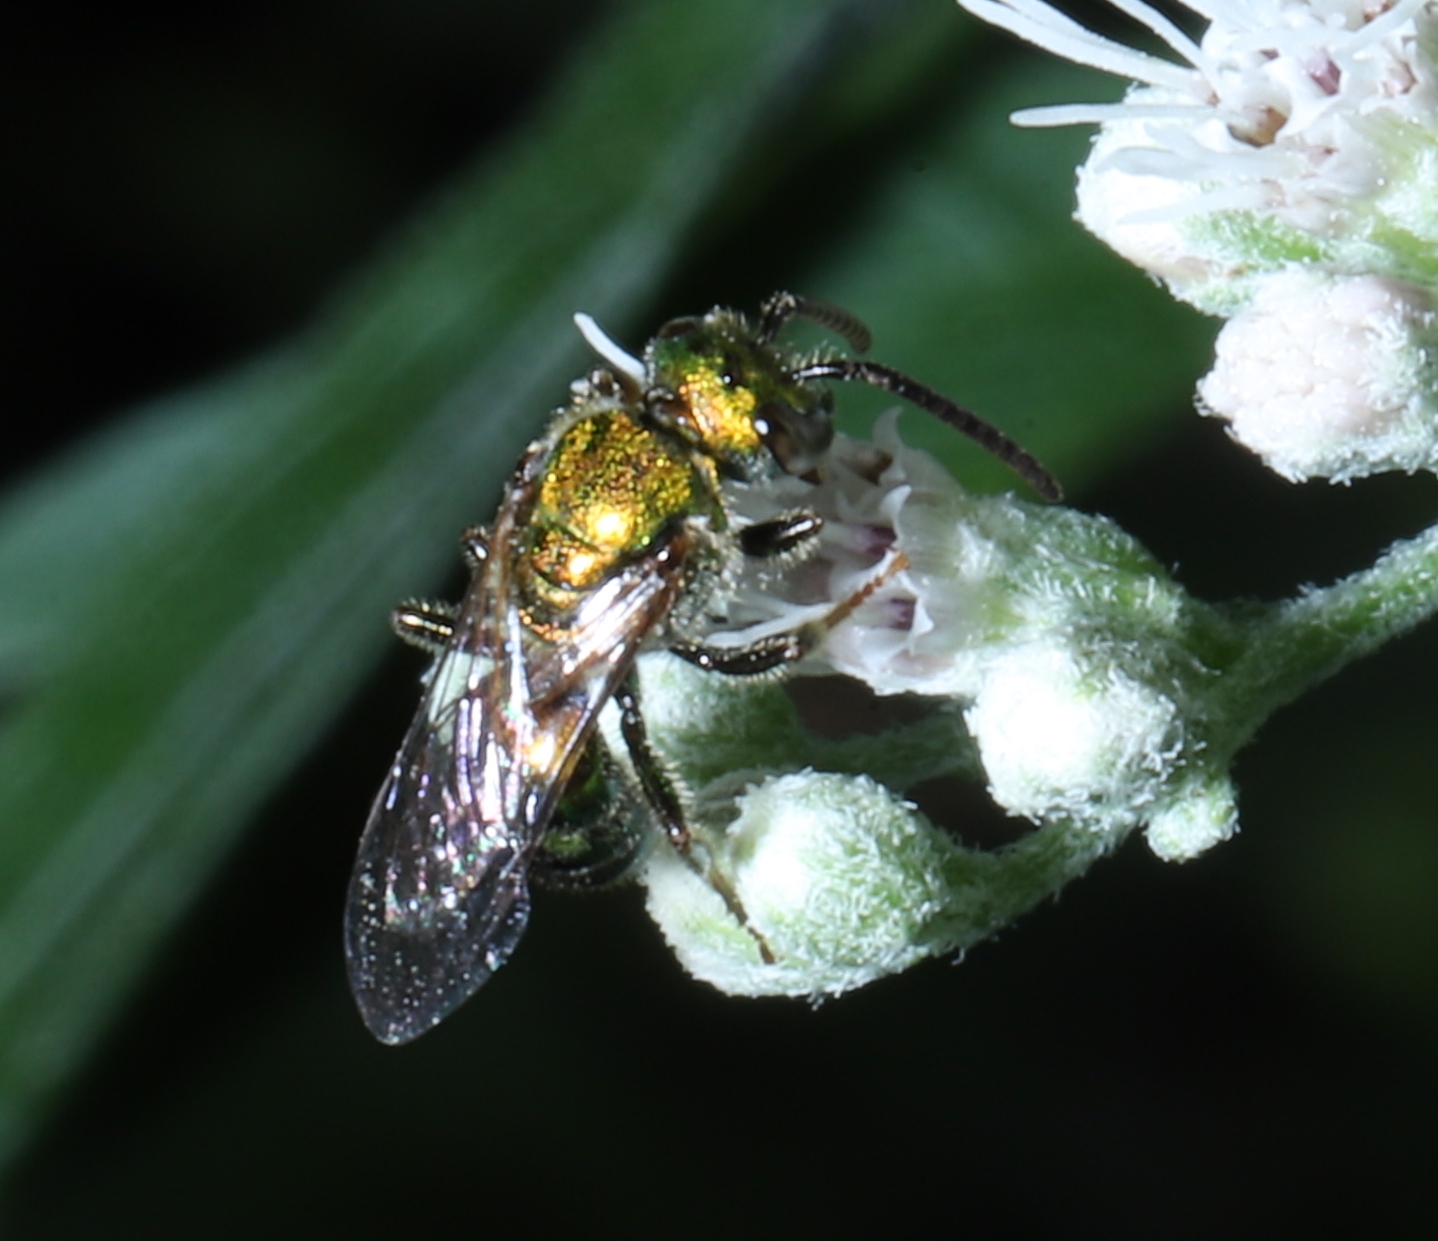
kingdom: Animalia
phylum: Arthropoda
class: Insecta
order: Hymenoptera
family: Halictidae
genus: Augochlora
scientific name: Augochlora pura
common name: Pure green sweat bee
